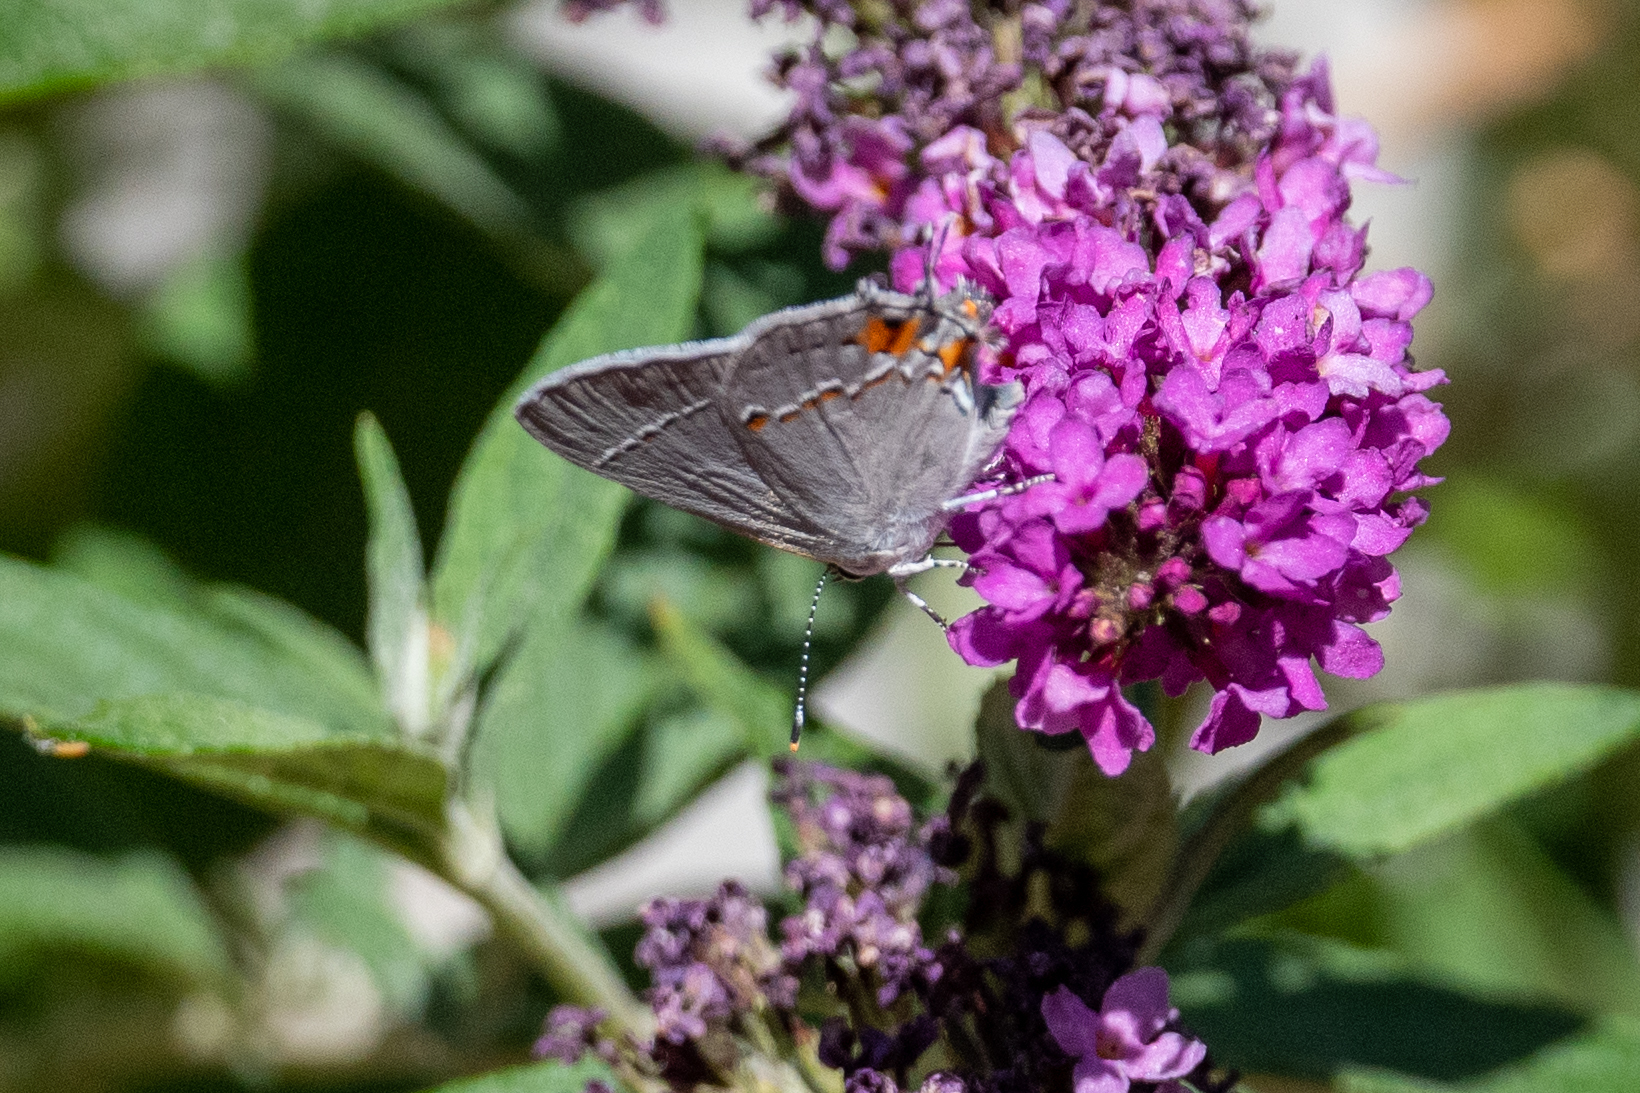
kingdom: Animalia
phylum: Arthropoda
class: Insecta
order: Lepidoptera
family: Lycaenidae
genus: Strymon
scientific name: Strymon melinus
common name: Gray hairstreak
